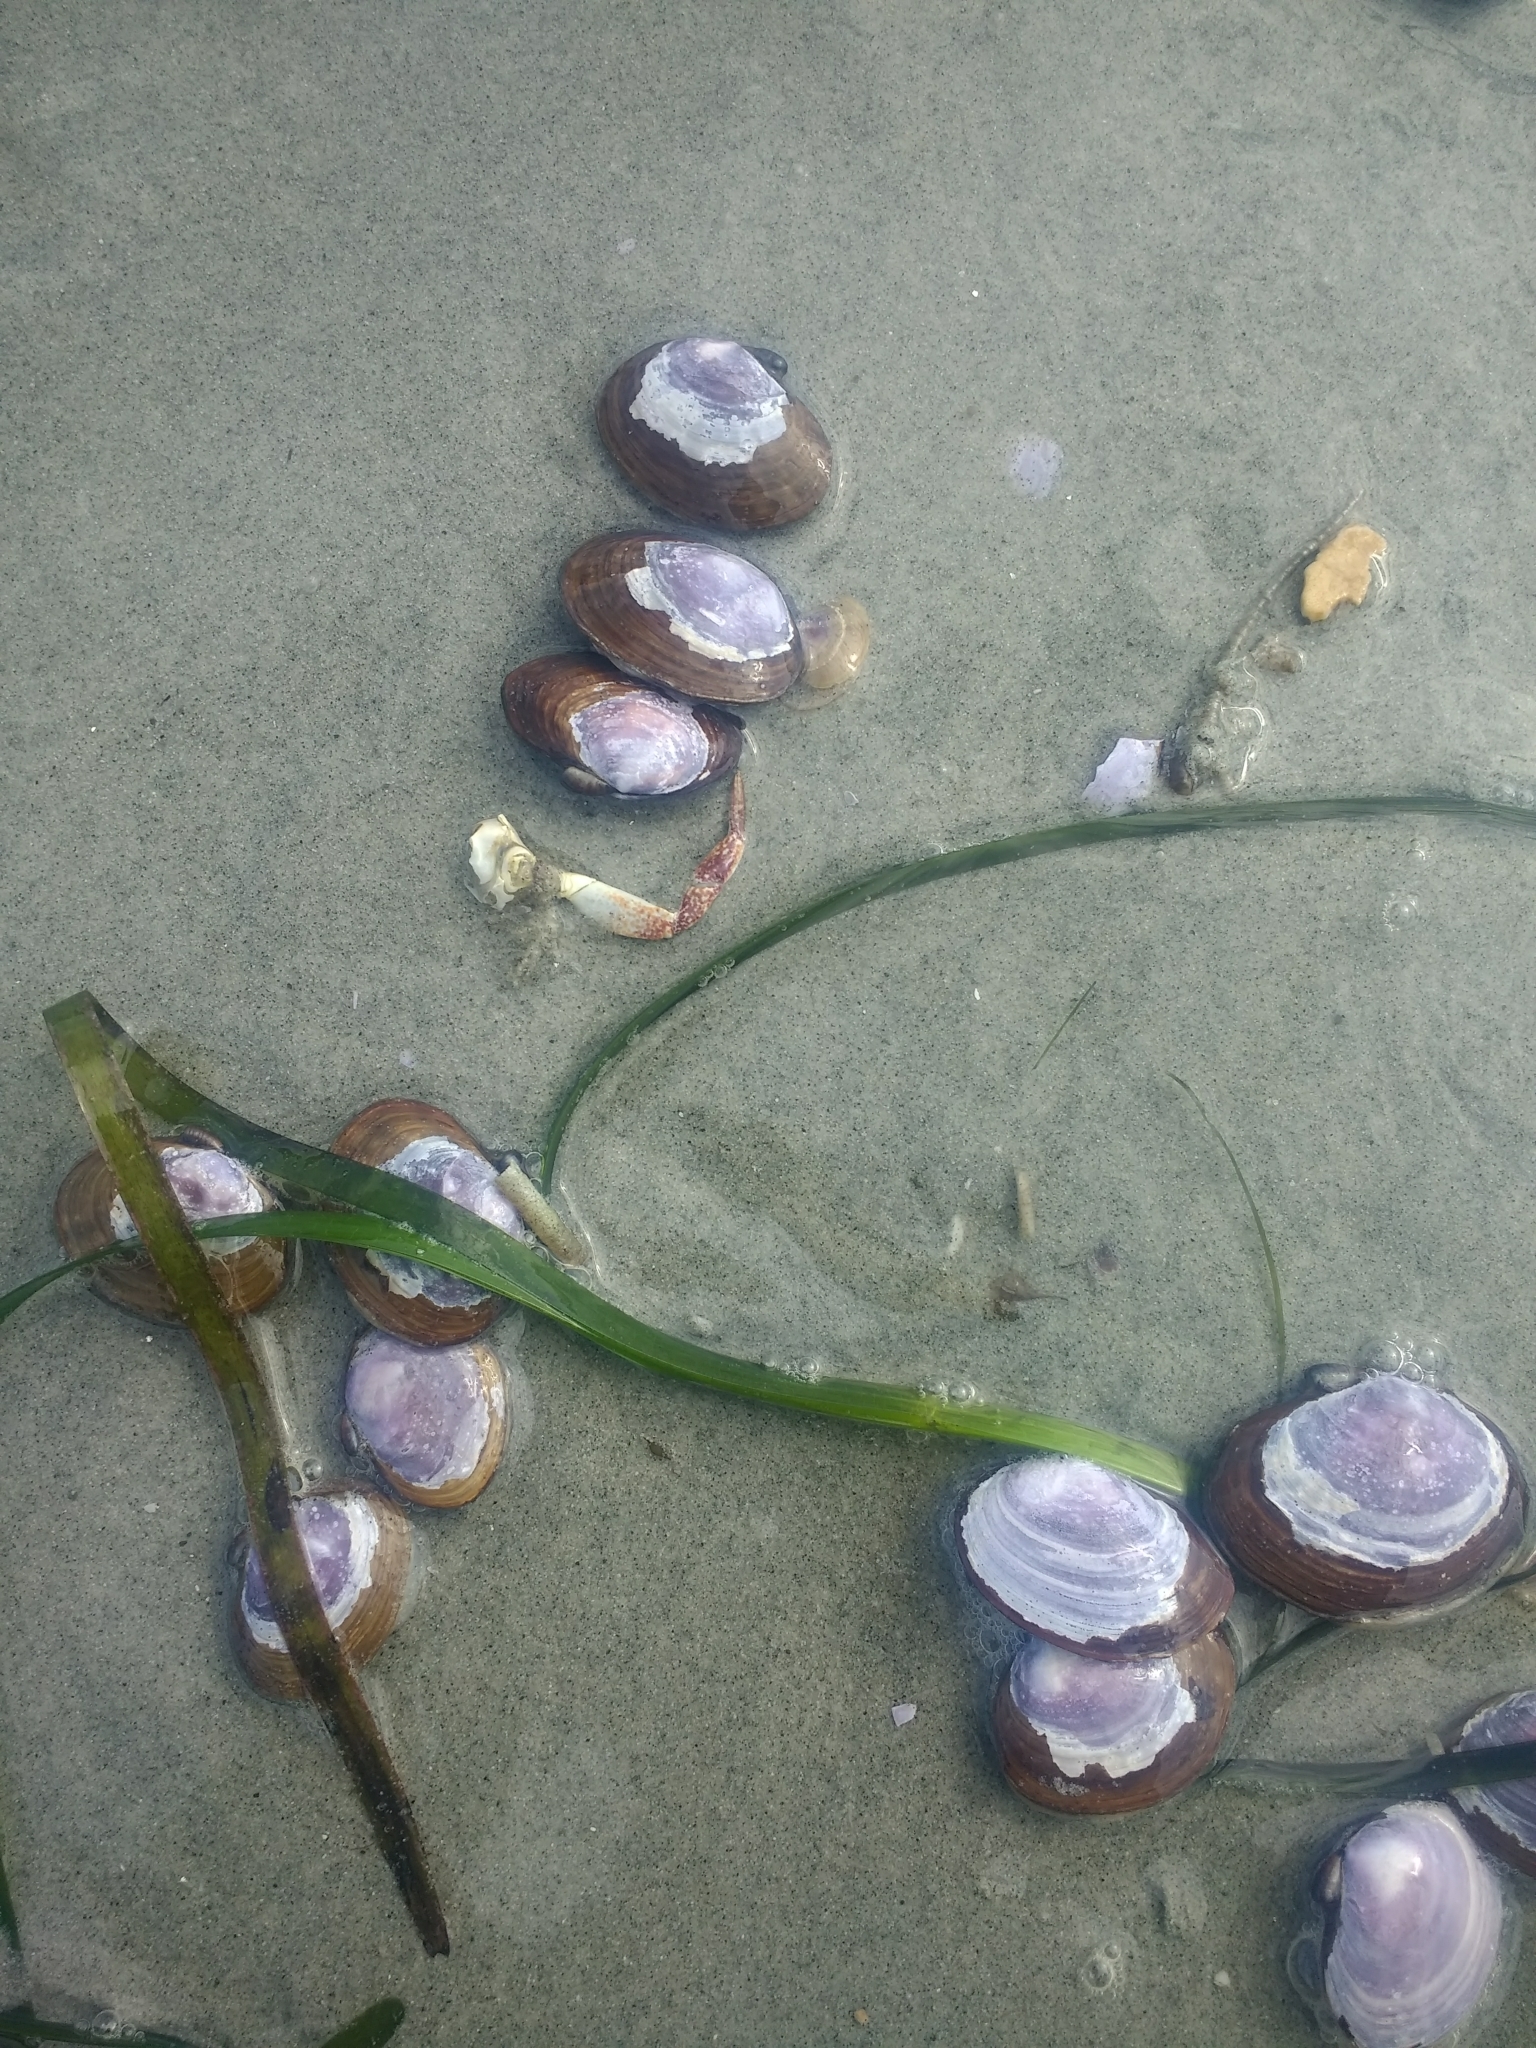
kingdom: Animalia
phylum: Mollusca
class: Bivalvia
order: Cardiida
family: Psammobiidae
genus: Nuttallia
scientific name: Nuttallia obscurata
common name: Purple mahogany-clam
